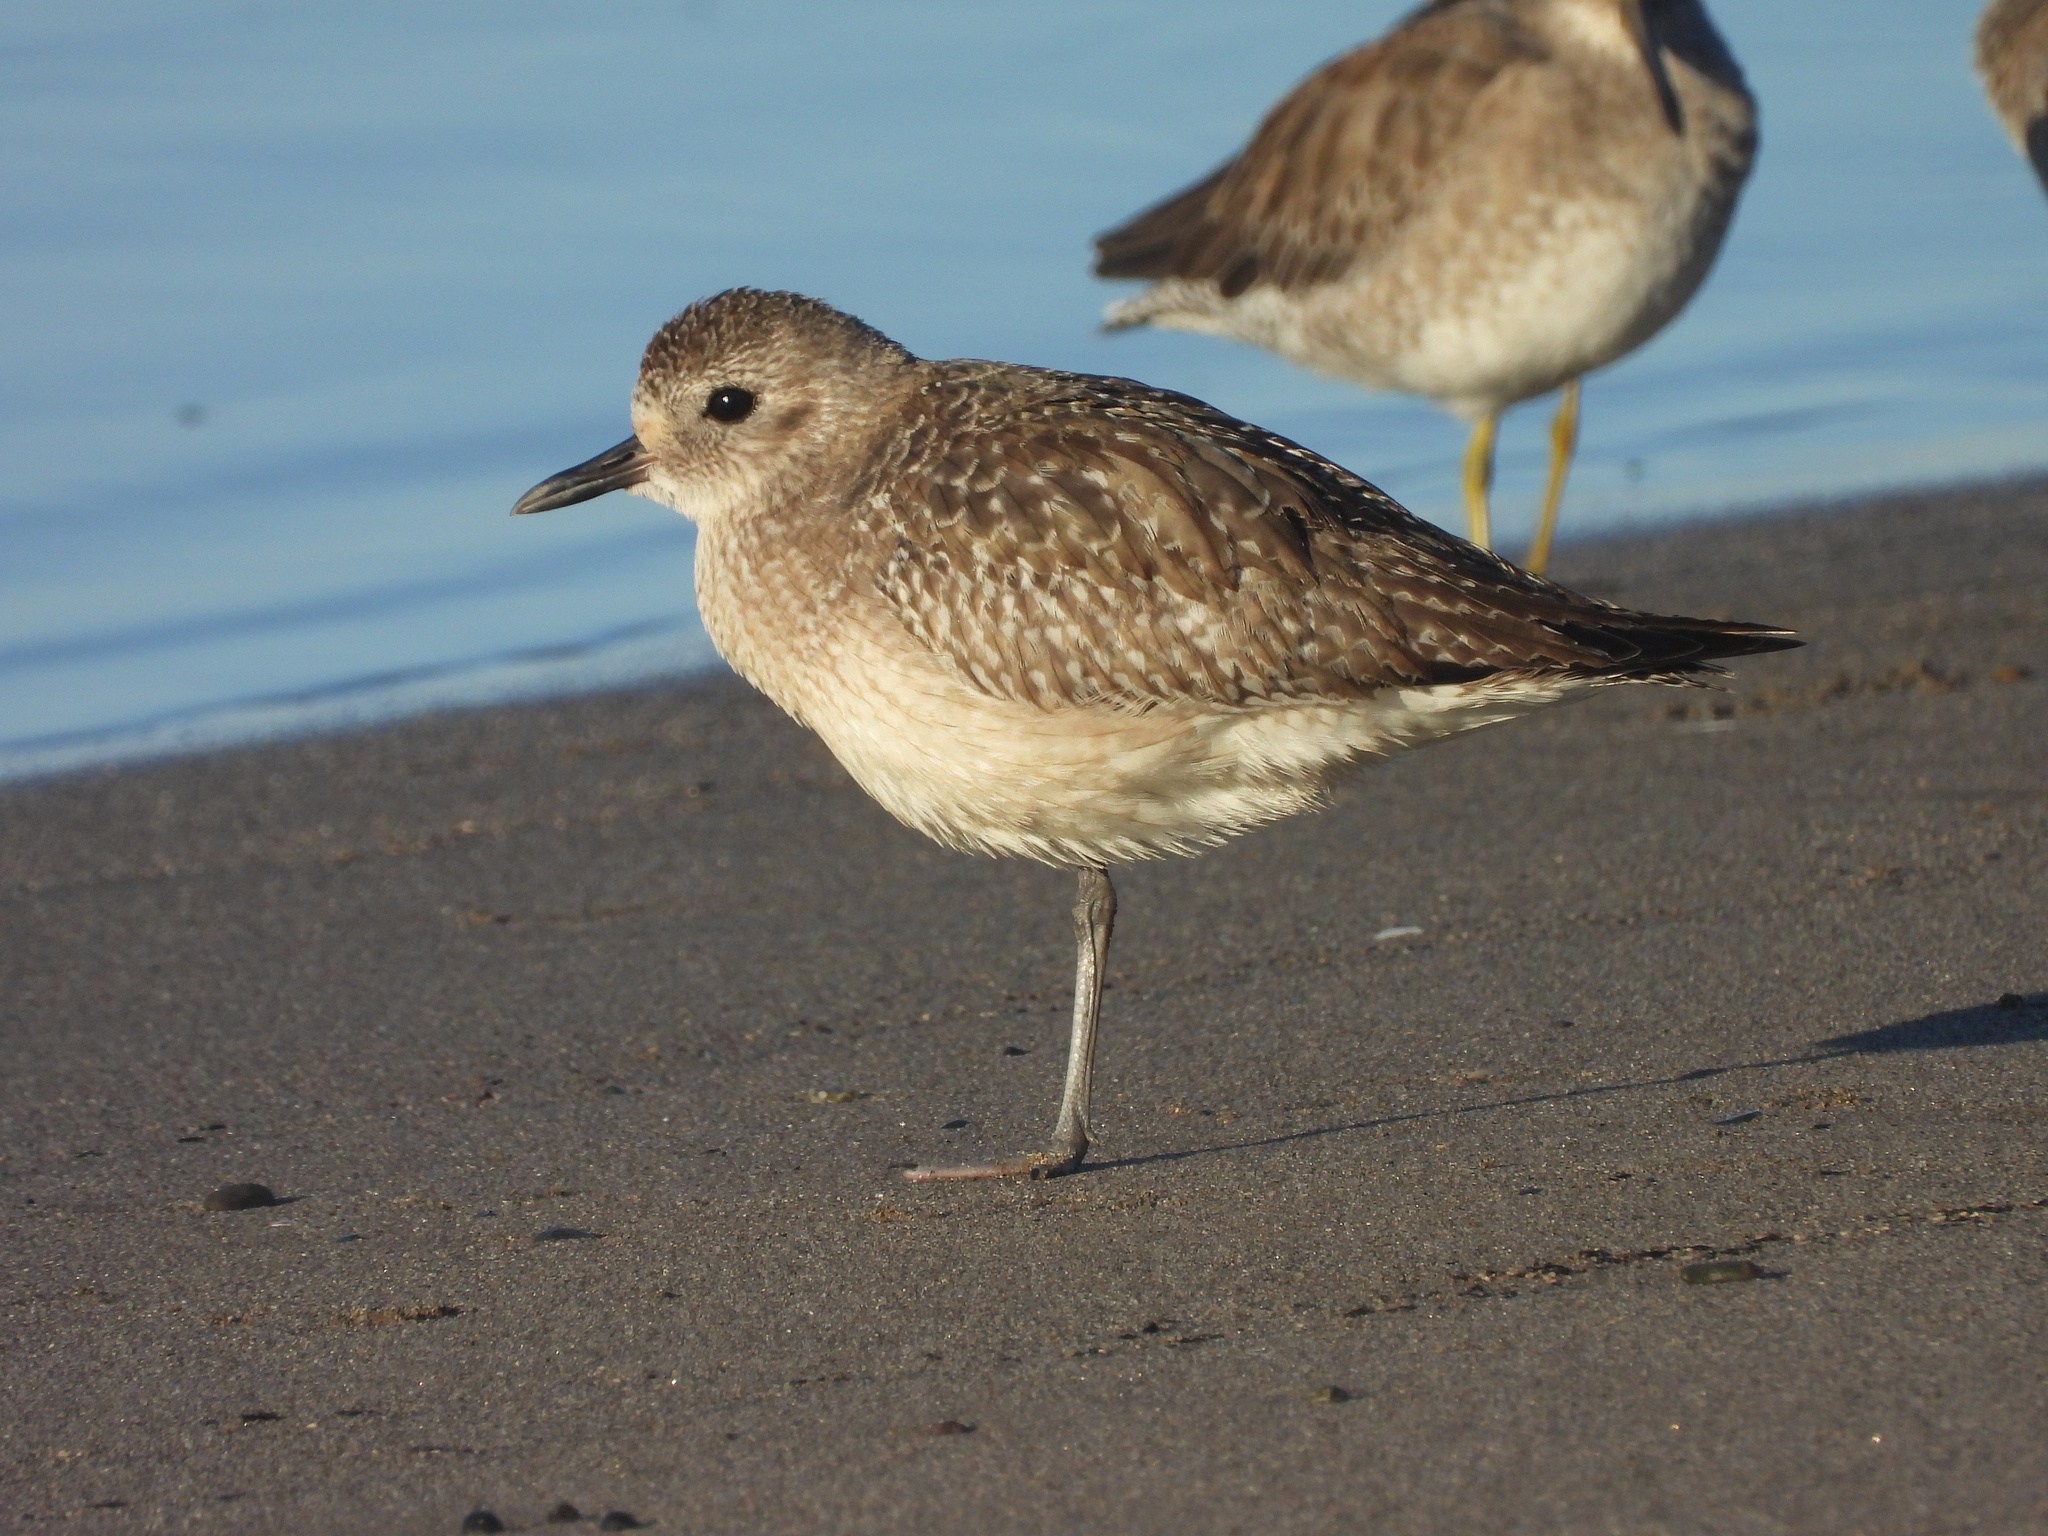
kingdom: Animalia
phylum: Chordata
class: Aves
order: Charadriiformes
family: Charadriidae
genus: Pluvialis
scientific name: Pluvialis squatarola
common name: Grey plover
